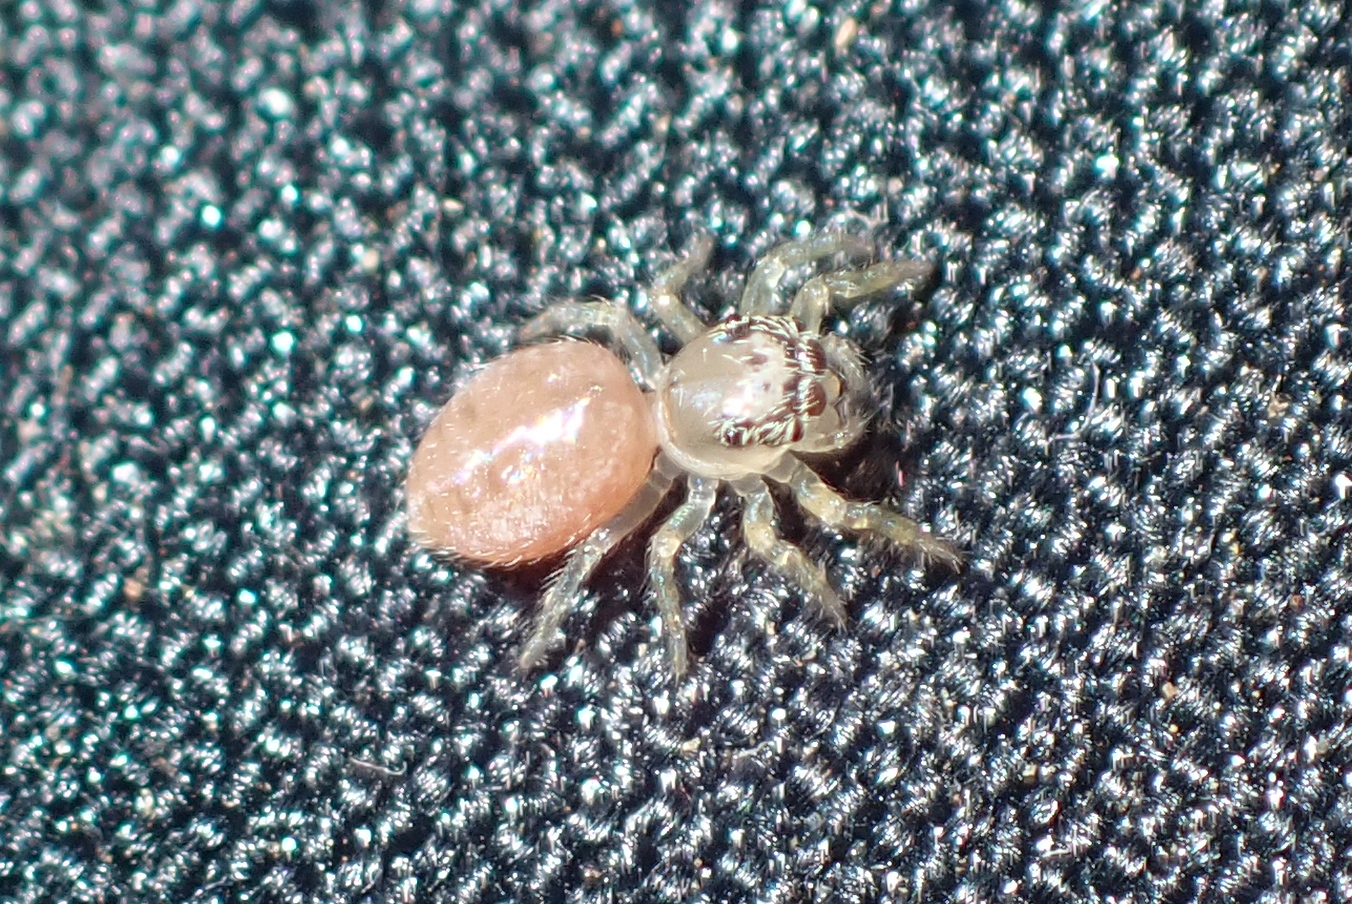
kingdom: Animalia
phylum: Arthropoda
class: Arachnida
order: Araneae
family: Salticidae
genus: Opisthoncus
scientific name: Opisthoncus polyphemus
